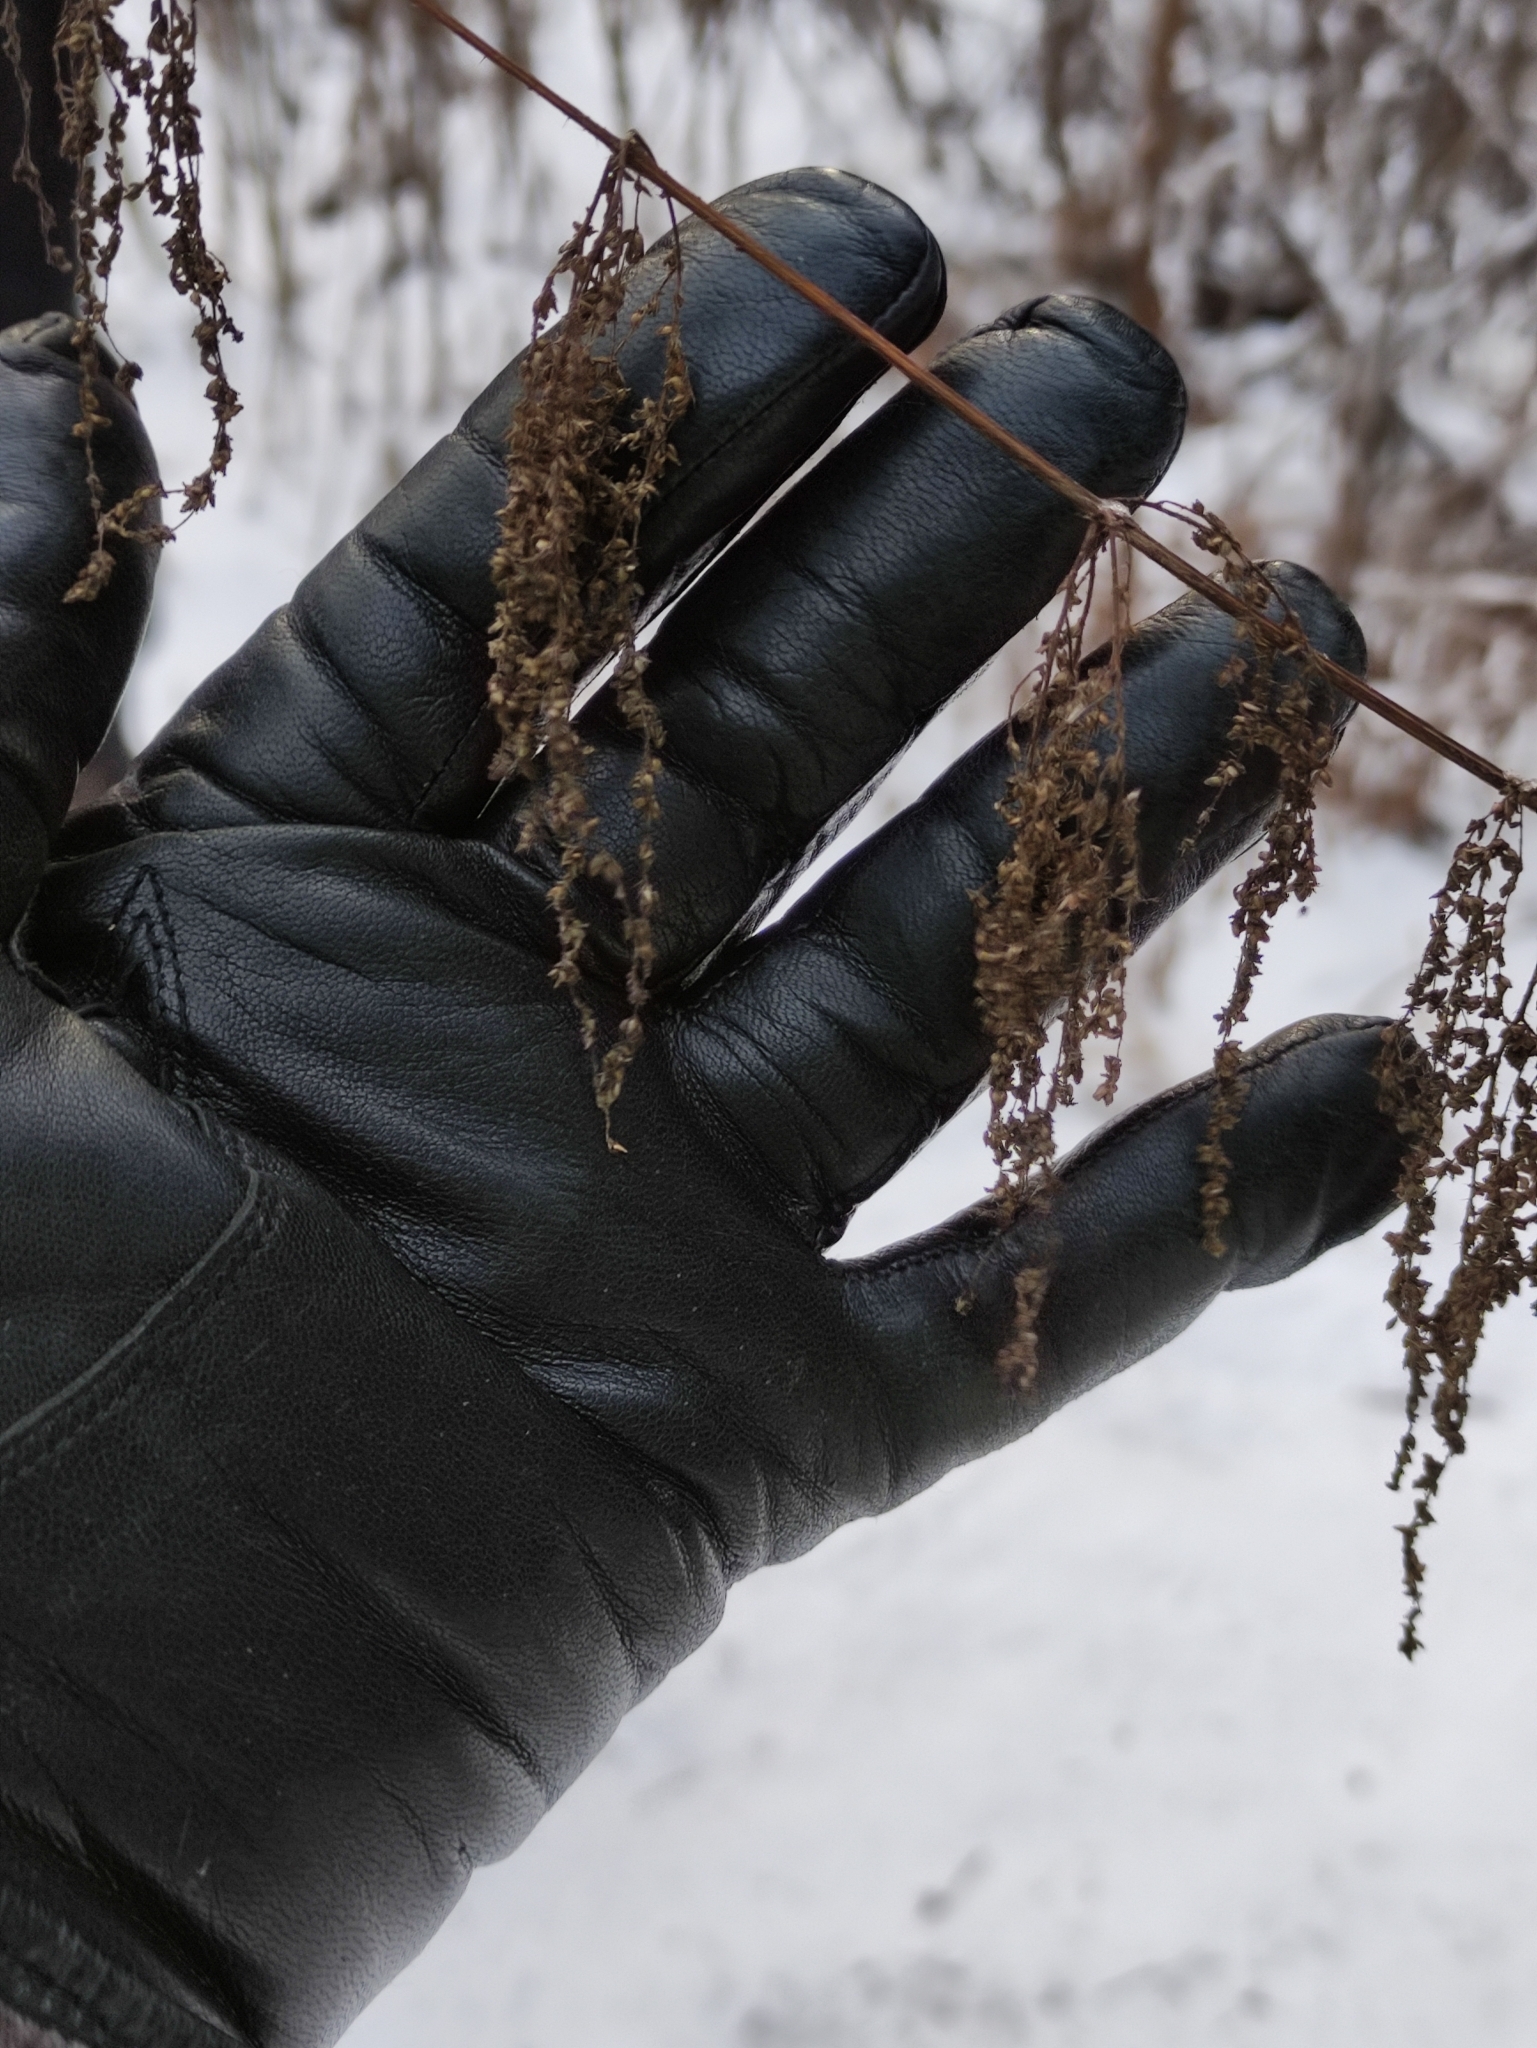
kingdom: Plantae
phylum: Tracheophyta
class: Magnoliopsida
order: Rosales
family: Urticaceae
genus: Urtica
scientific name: Urtica dioica
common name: Common nettle
